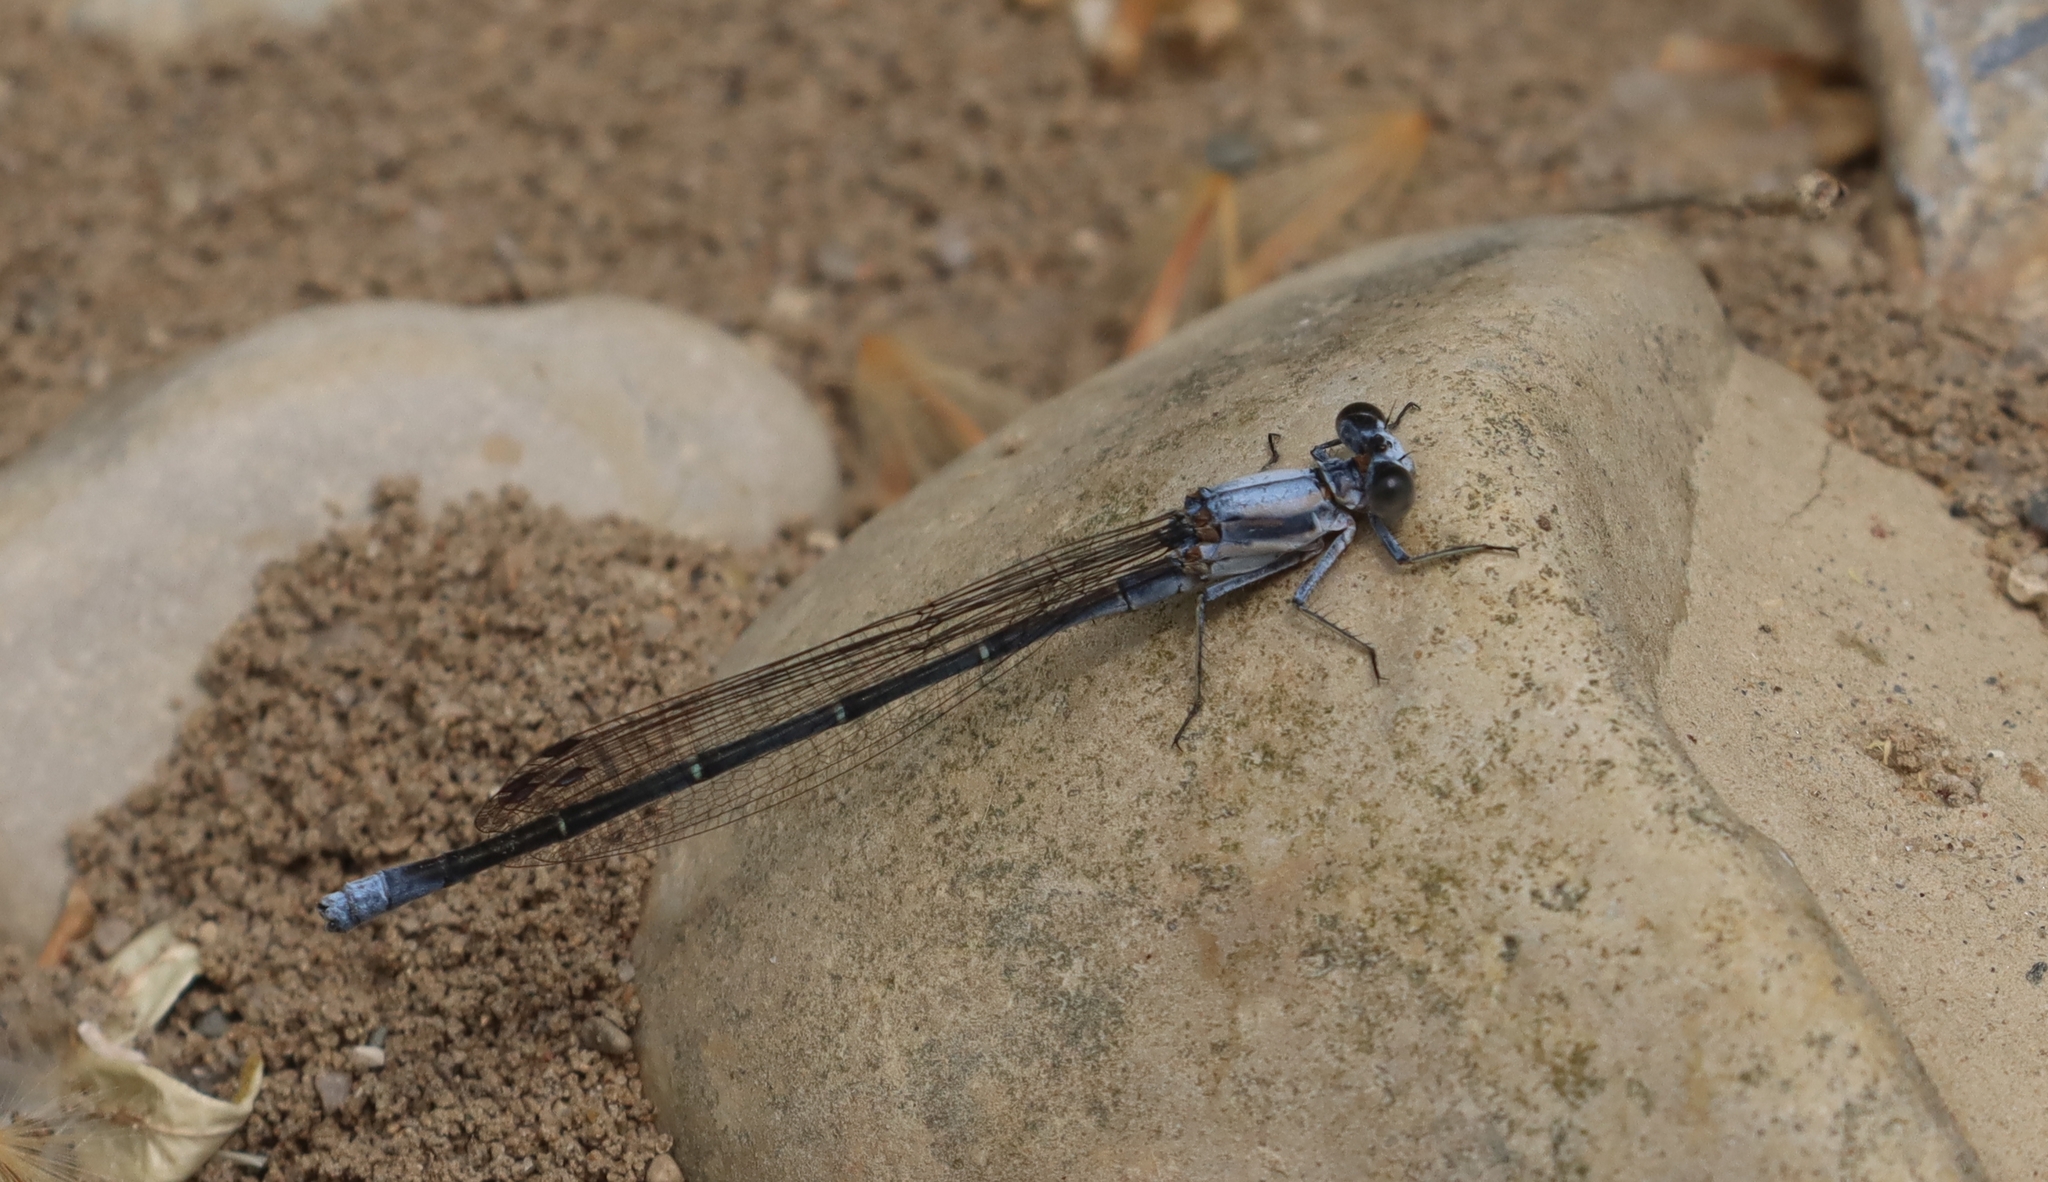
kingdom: Animalia
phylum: Arthropoda
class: Insecta
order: Odonata
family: Coenagrionidae
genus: Argia
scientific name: Argia moesta
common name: Powdered dancer
